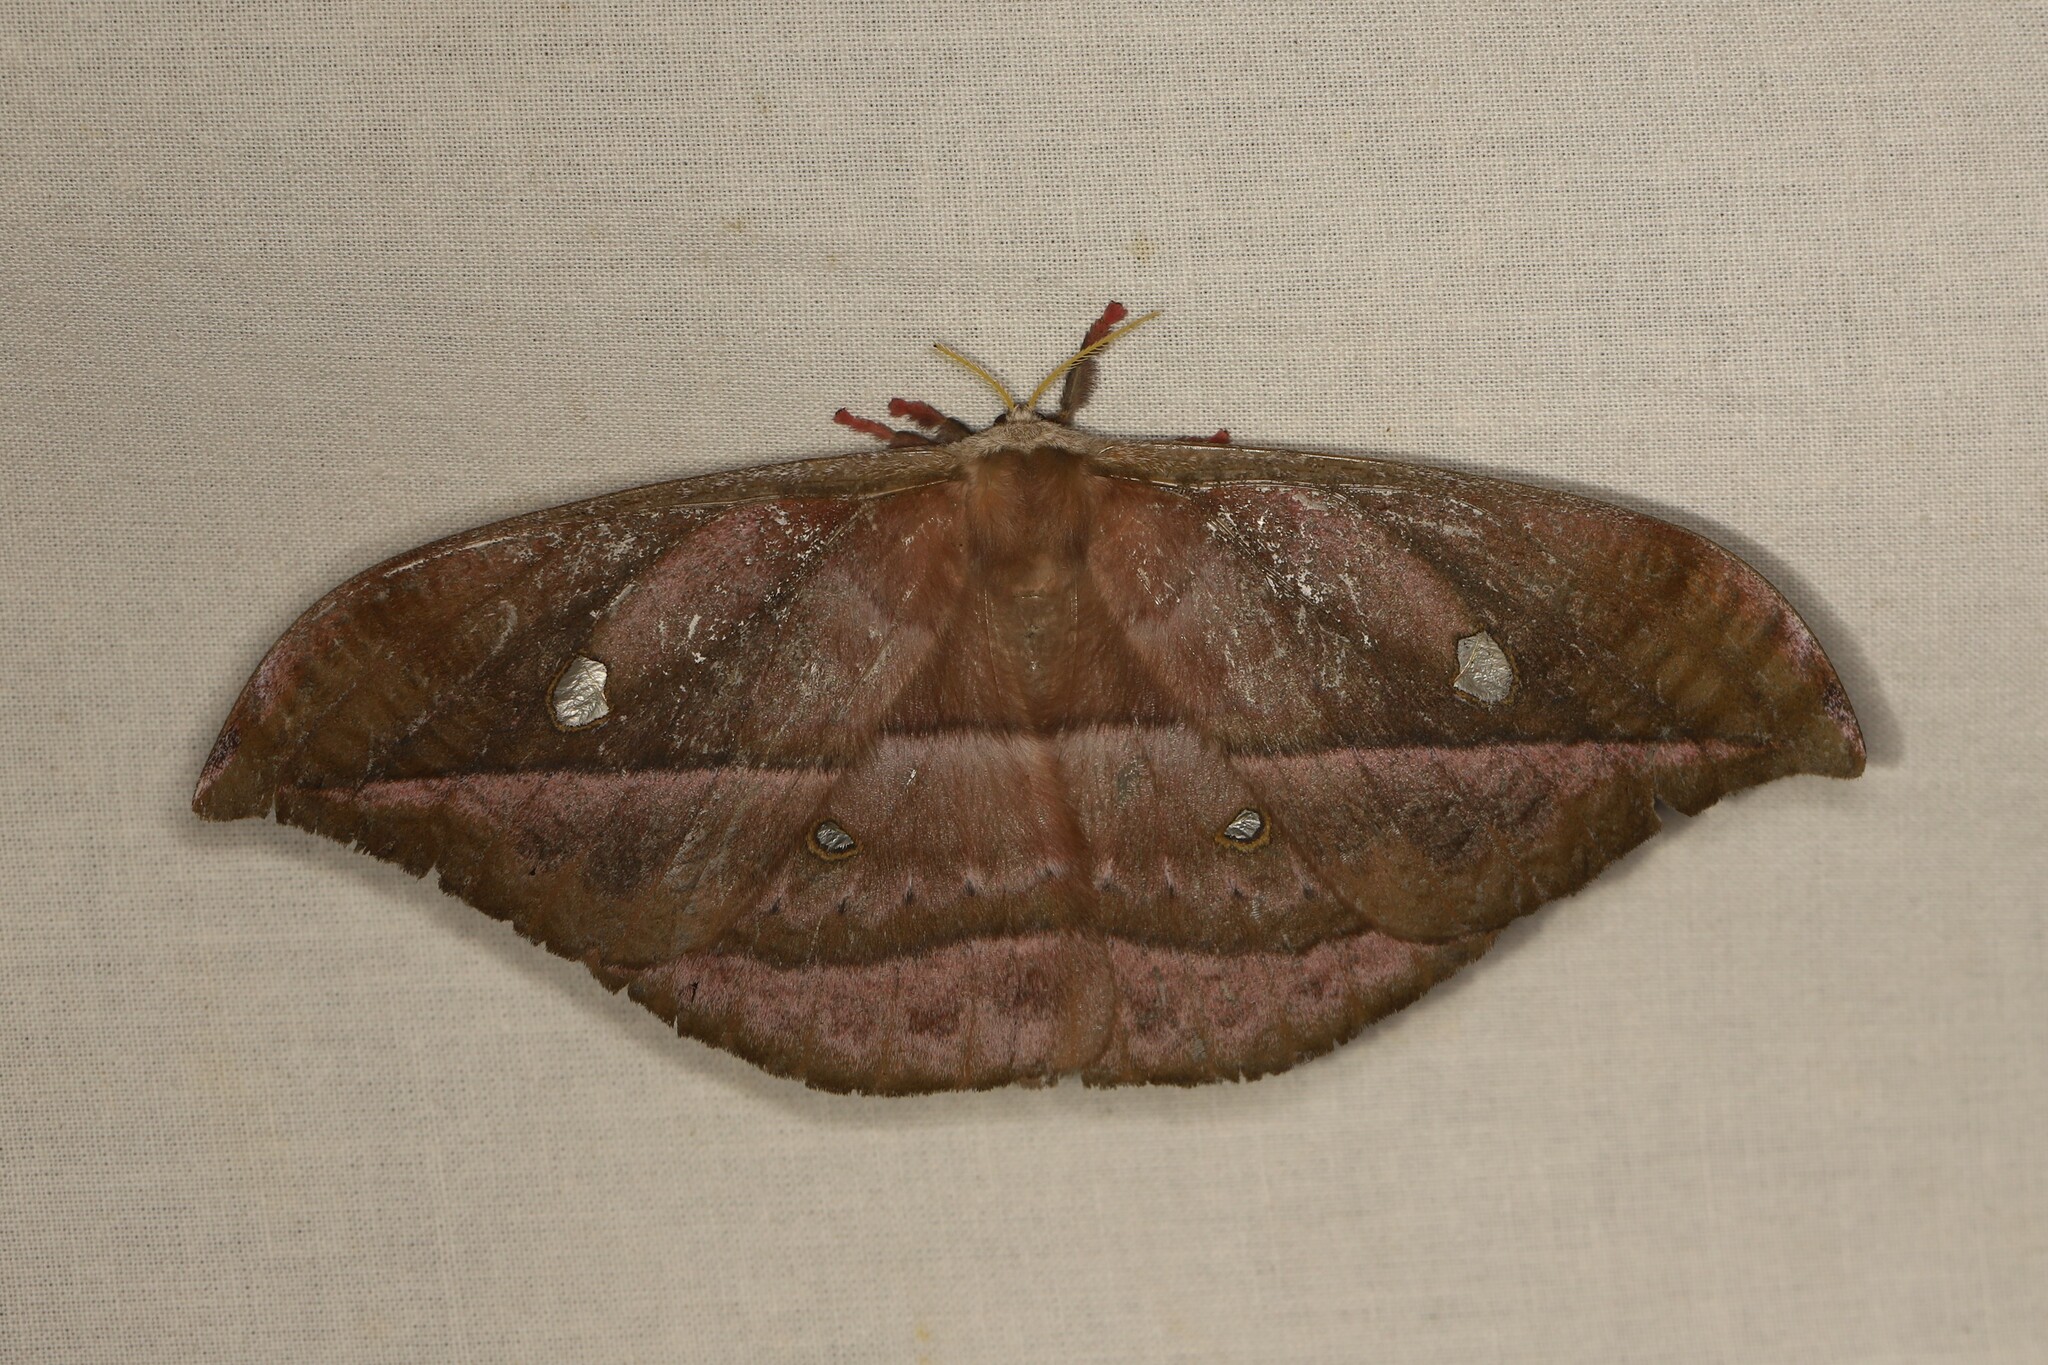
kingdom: Animalia
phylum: Arthropoda
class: Insecta
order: Lepidoptera
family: Saturniidae
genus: Copaxa
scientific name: Copaxa decrescens
